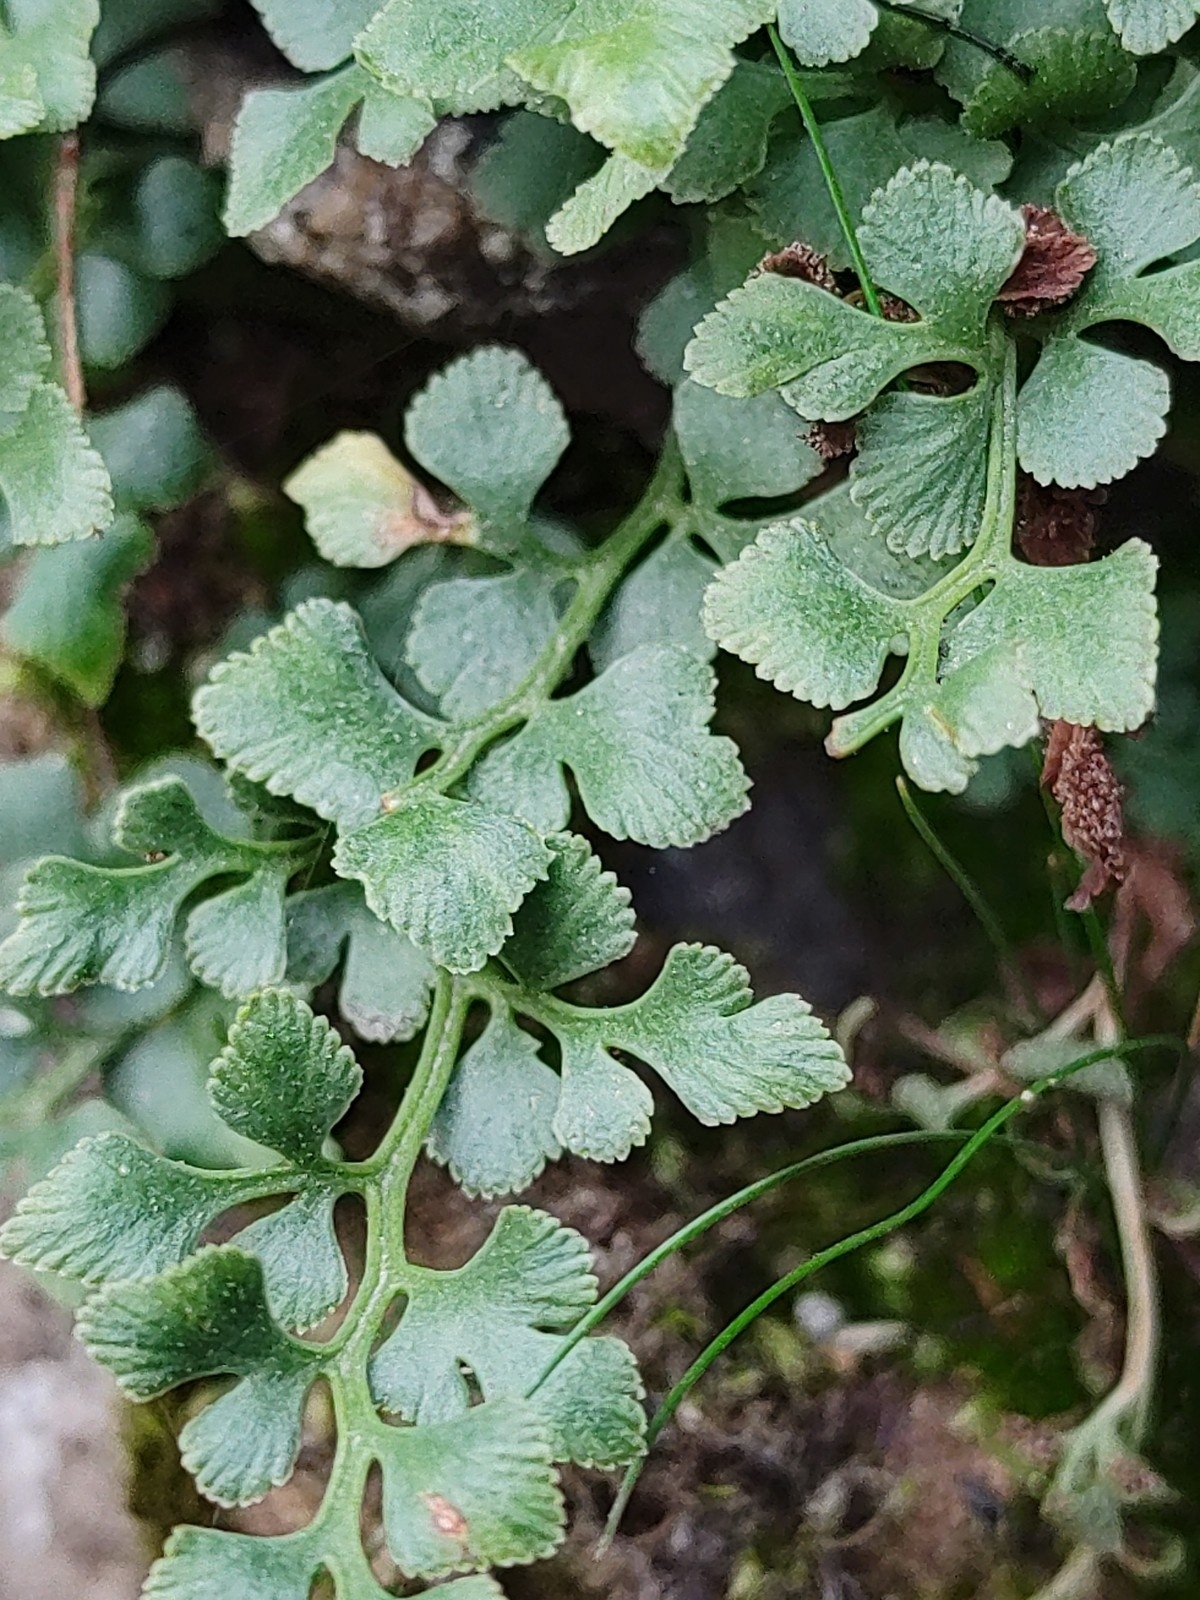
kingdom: Plantae
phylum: Tracheophyta
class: Polypodiopsida
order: Polypodiales
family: Aspleniaceae
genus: Asplenium
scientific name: Asplenium ruta-muraria
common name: Wall-rue
